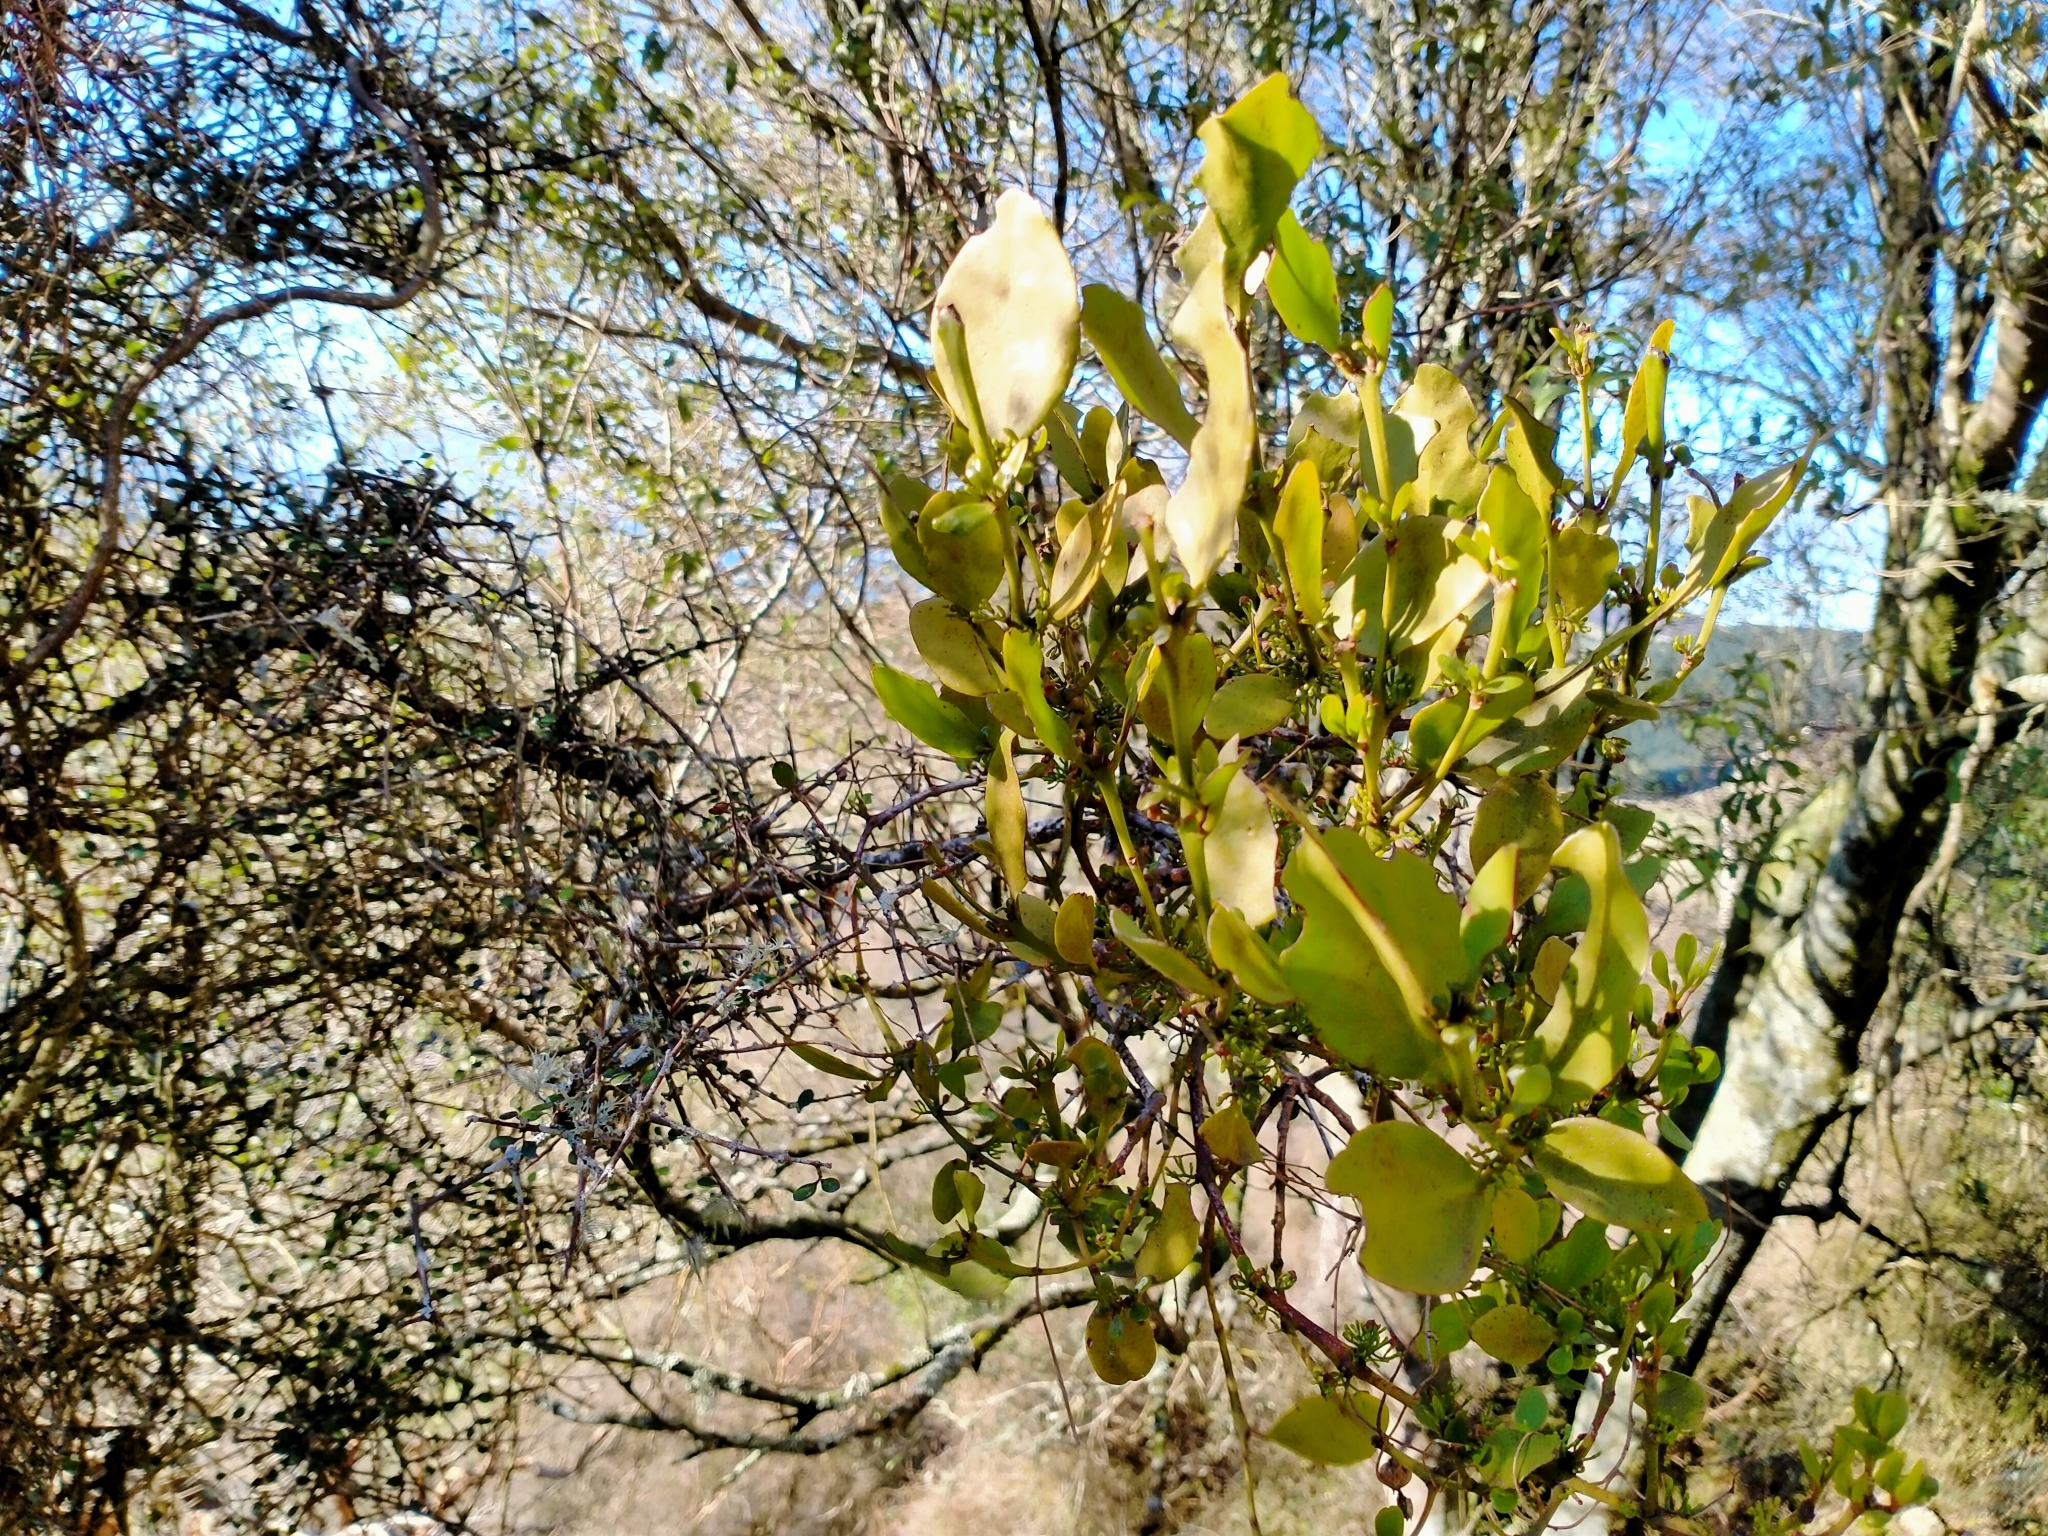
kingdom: Plantae
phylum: Tracheophyta
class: Magnoliopsida
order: Santalales
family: Loranthaceae
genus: Ileostylus
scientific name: Ileostylus micranthus
